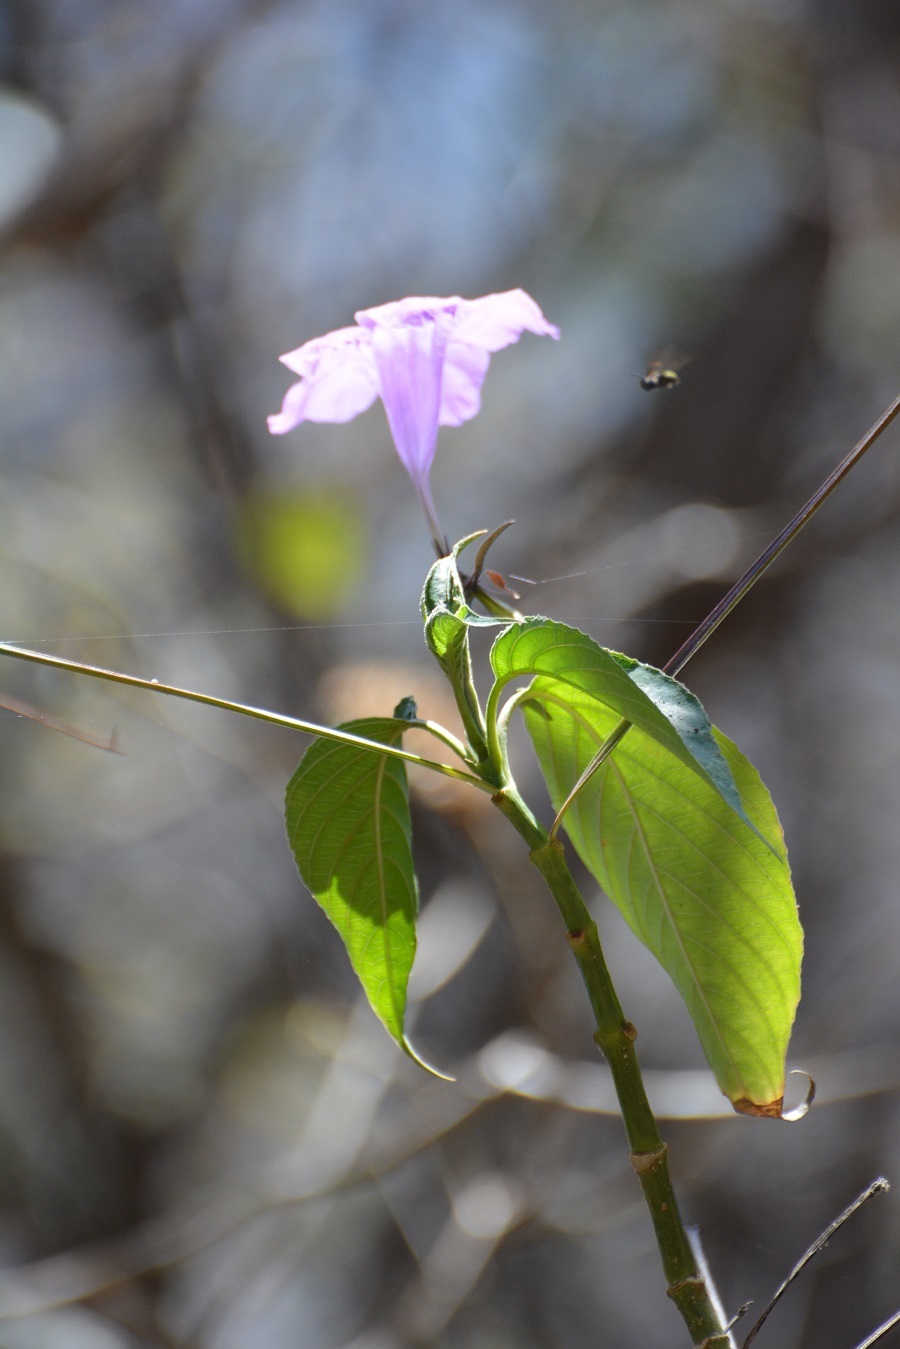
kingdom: Plantae
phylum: Tracheophyta
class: Magnoliopsida
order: Lamiales
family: Acanthaceae
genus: Ruellia
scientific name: Ruellia breedlovei
